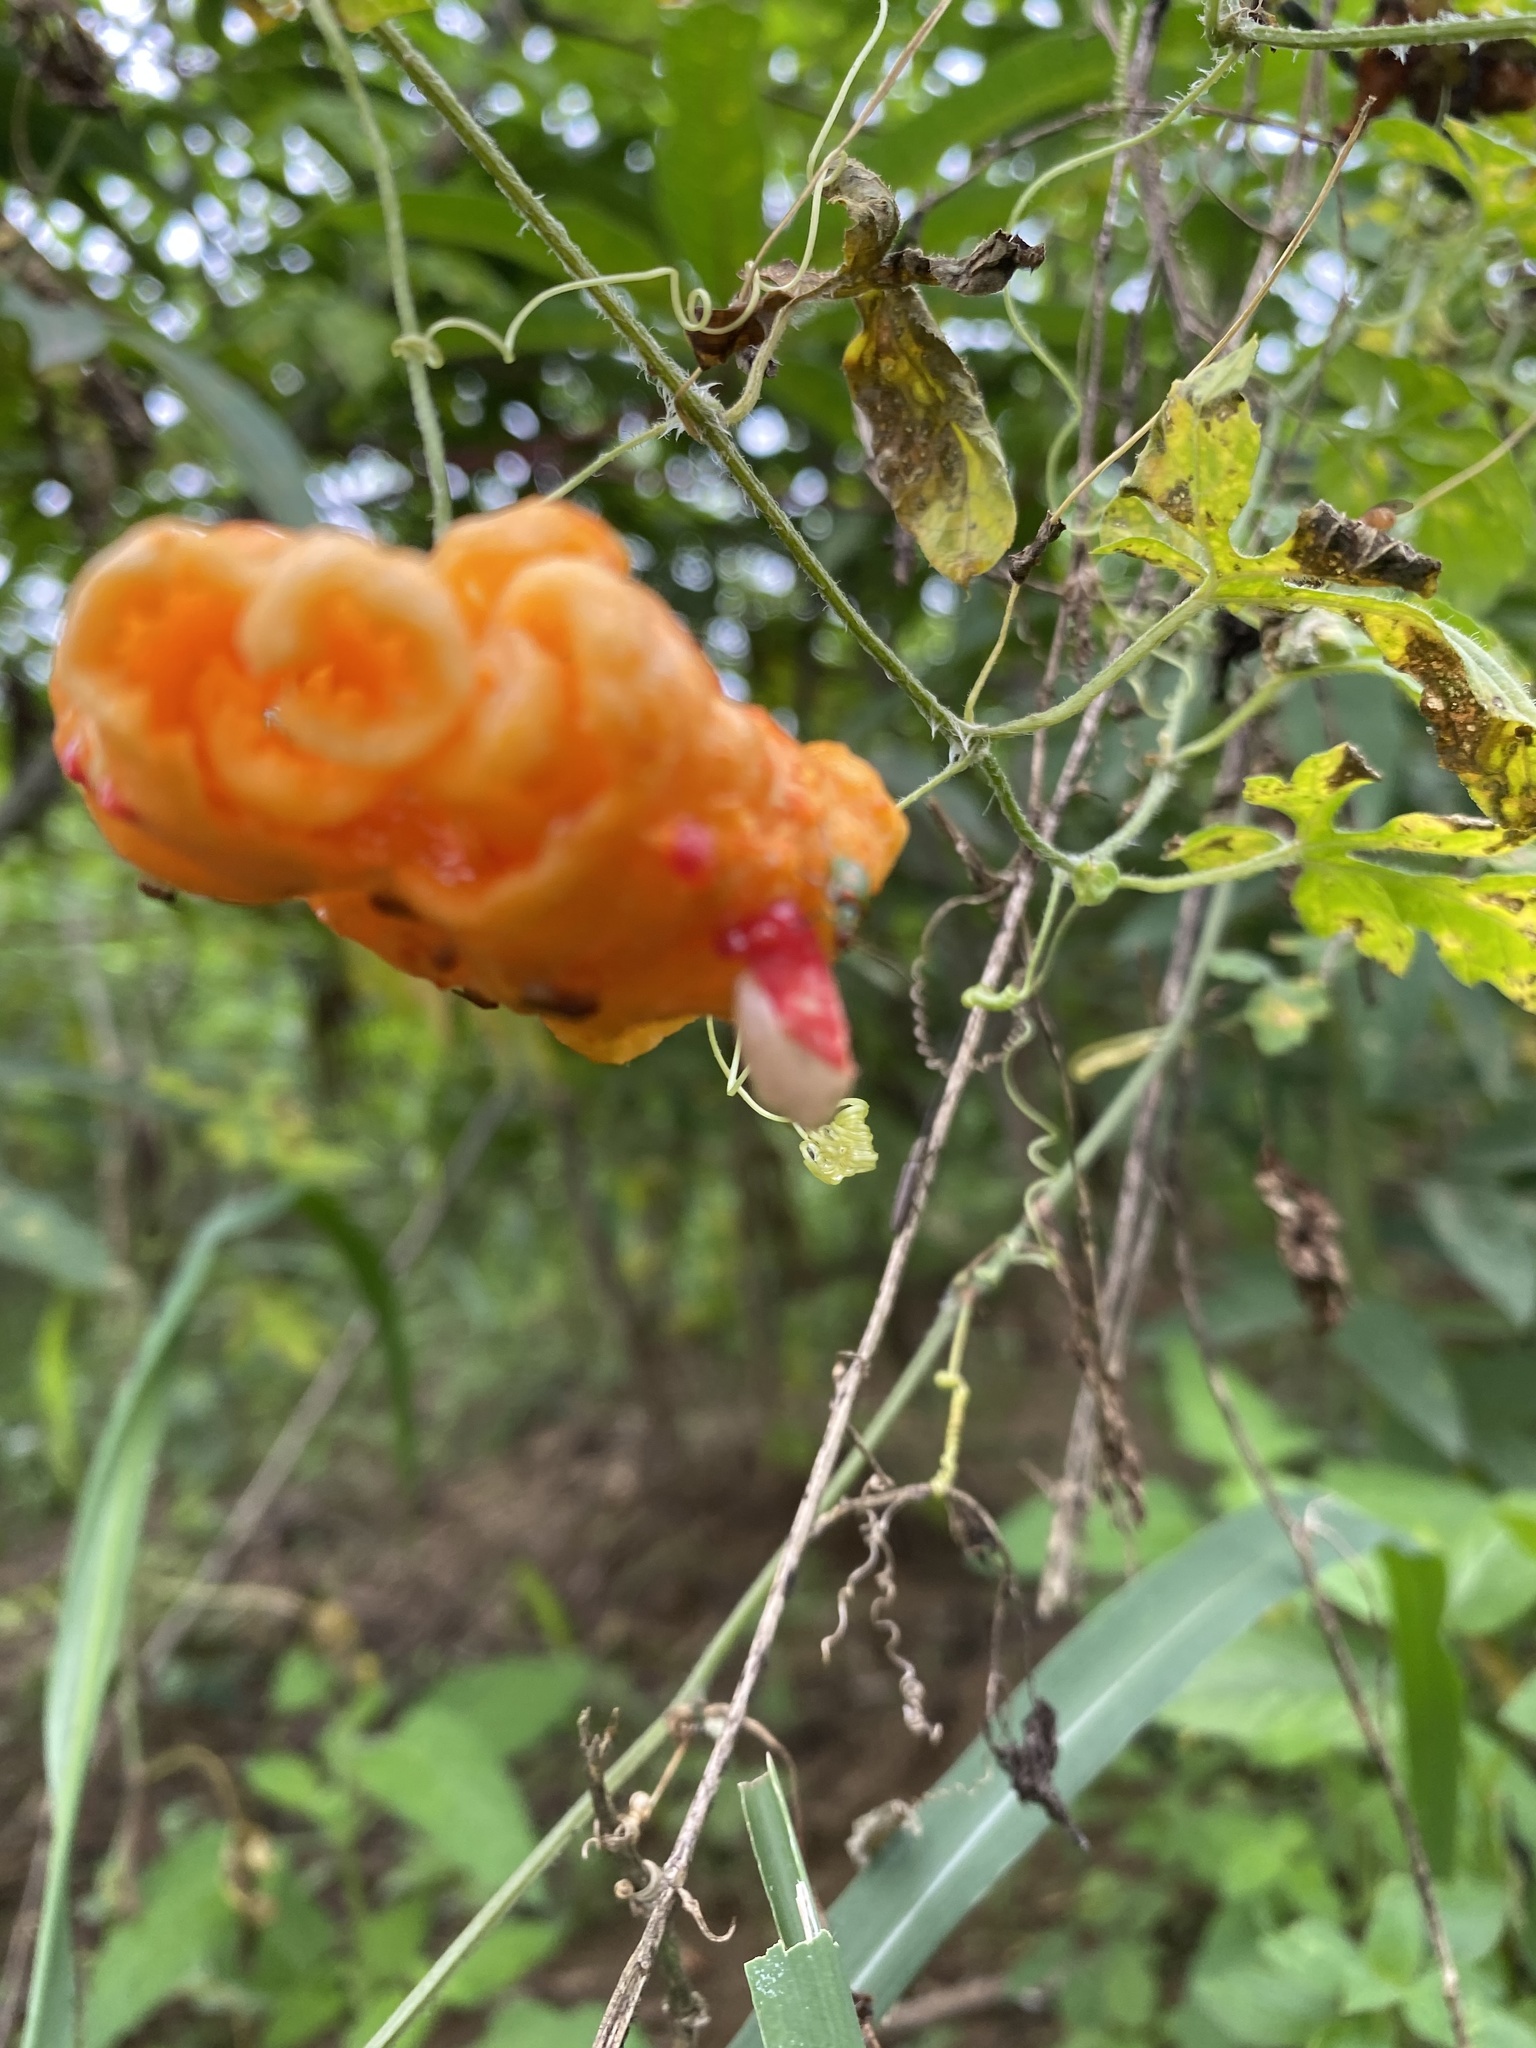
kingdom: Plantae
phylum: Tracheophyta
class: Magnoliopsida
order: Cucurbitales
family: Cucurbitaceae
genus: Momordica
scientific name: Momordica charantia
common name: Balsampear
